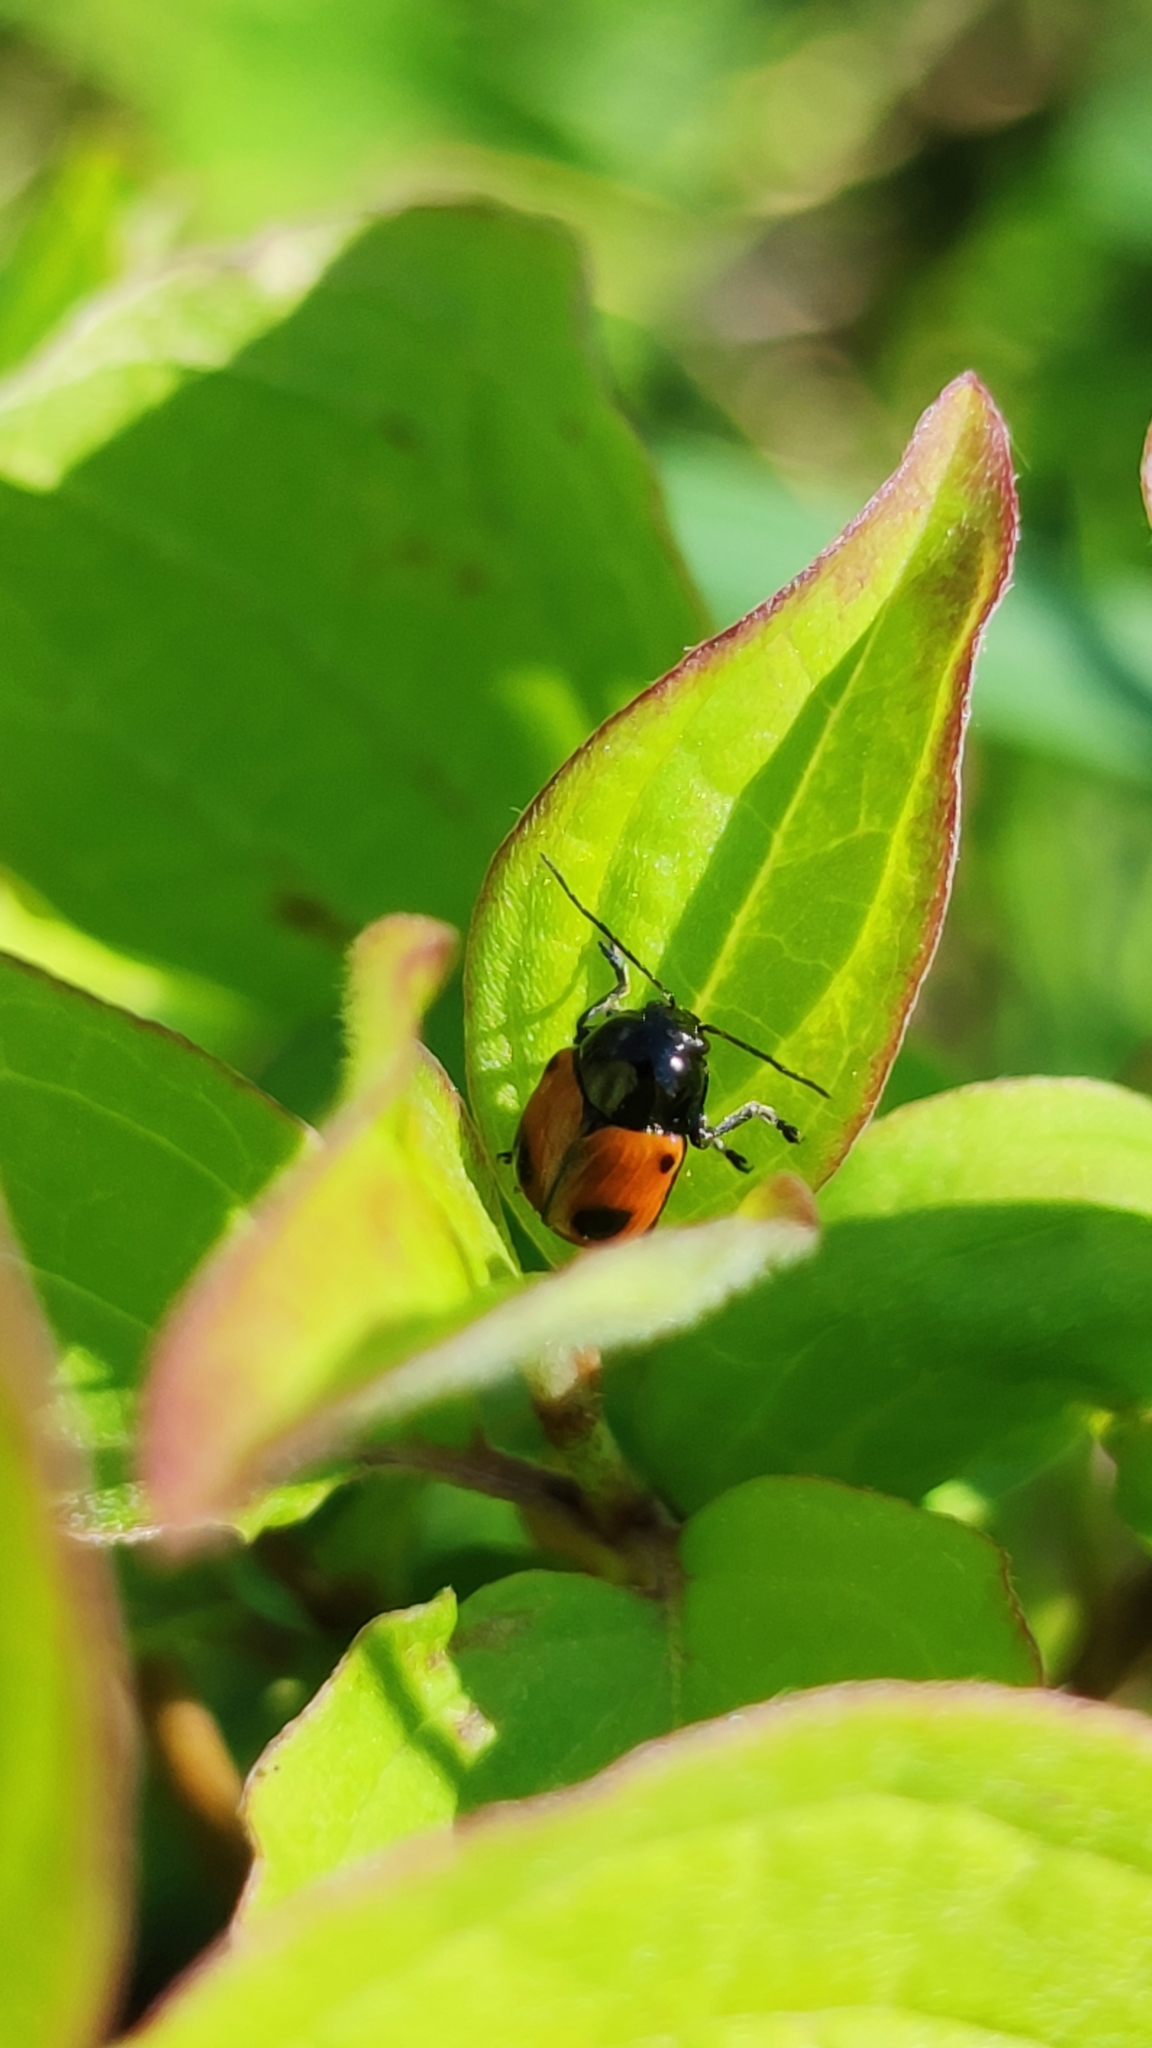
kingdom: Animalia
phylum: Arthropoda
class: Insecta
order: Coleoptera
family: Chrysomelidae
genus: Chiridopsis
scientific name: Chiridopsis bipunctata
